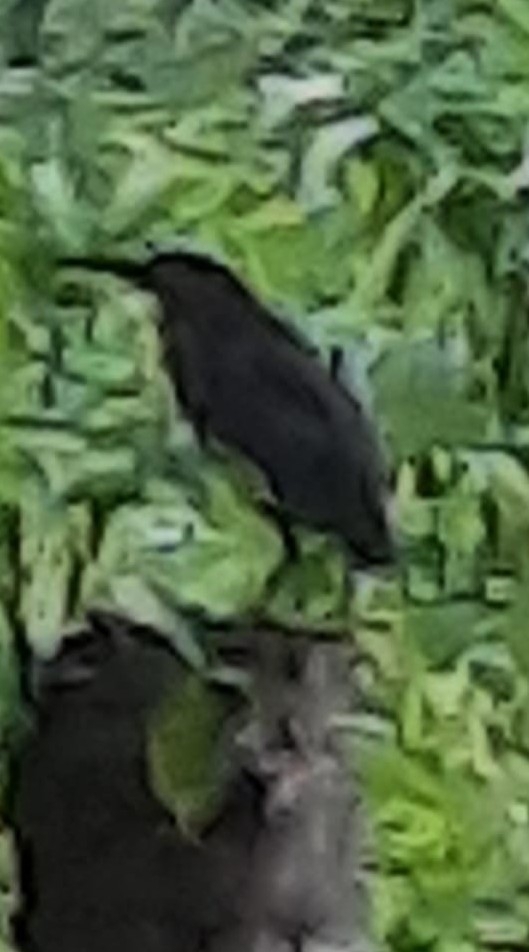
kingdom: Animalia
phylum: Chordata
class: Aves
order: Pelecaniformes
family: Ardeidae
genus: Butorides
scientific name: Butorides virescens
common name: Green heron
